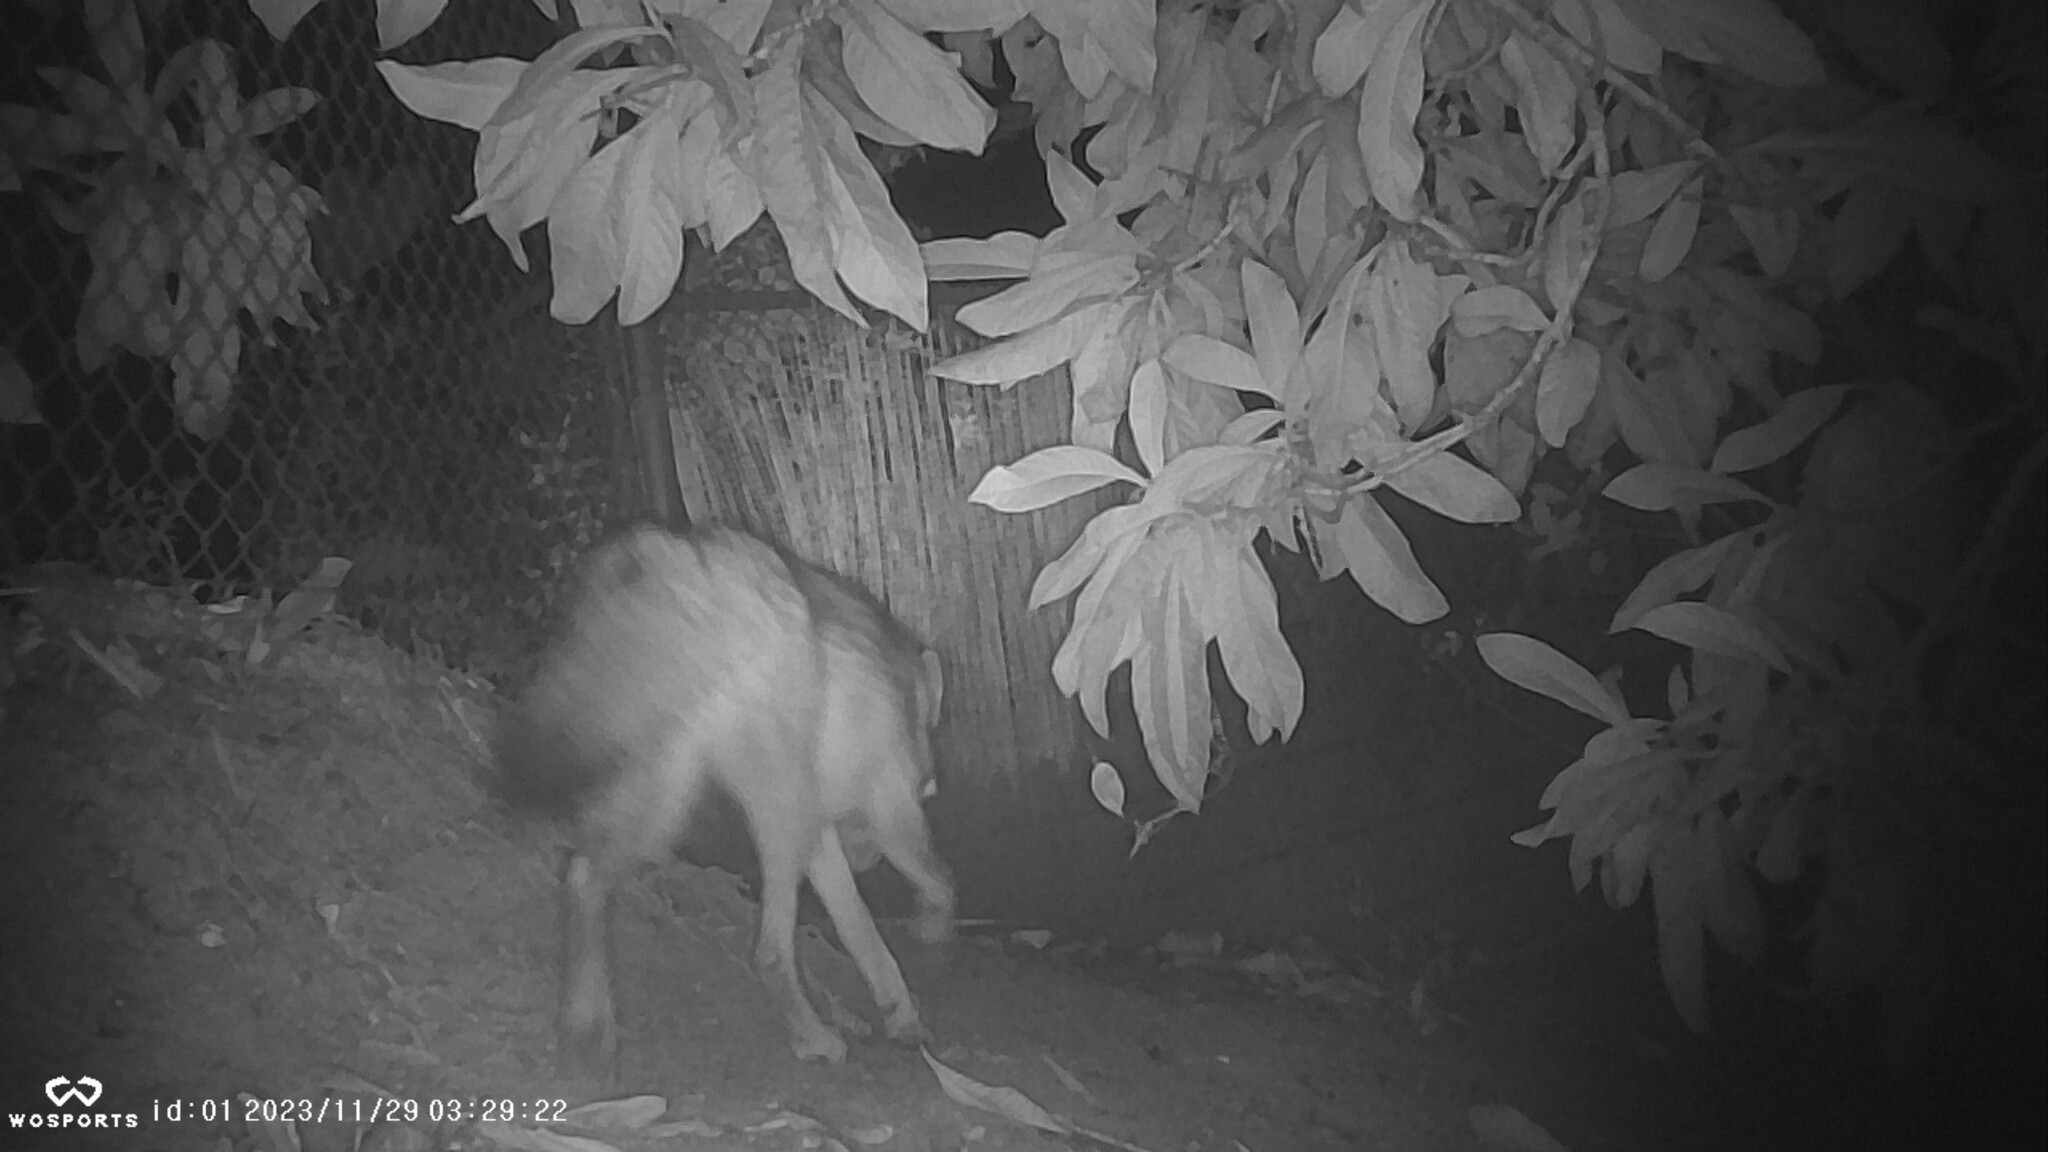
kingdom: Animalia
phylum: Chordata
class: Mammalia
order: Carnivora
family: Canidae
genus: Canis
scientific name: Canis latrans
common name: Coyote
